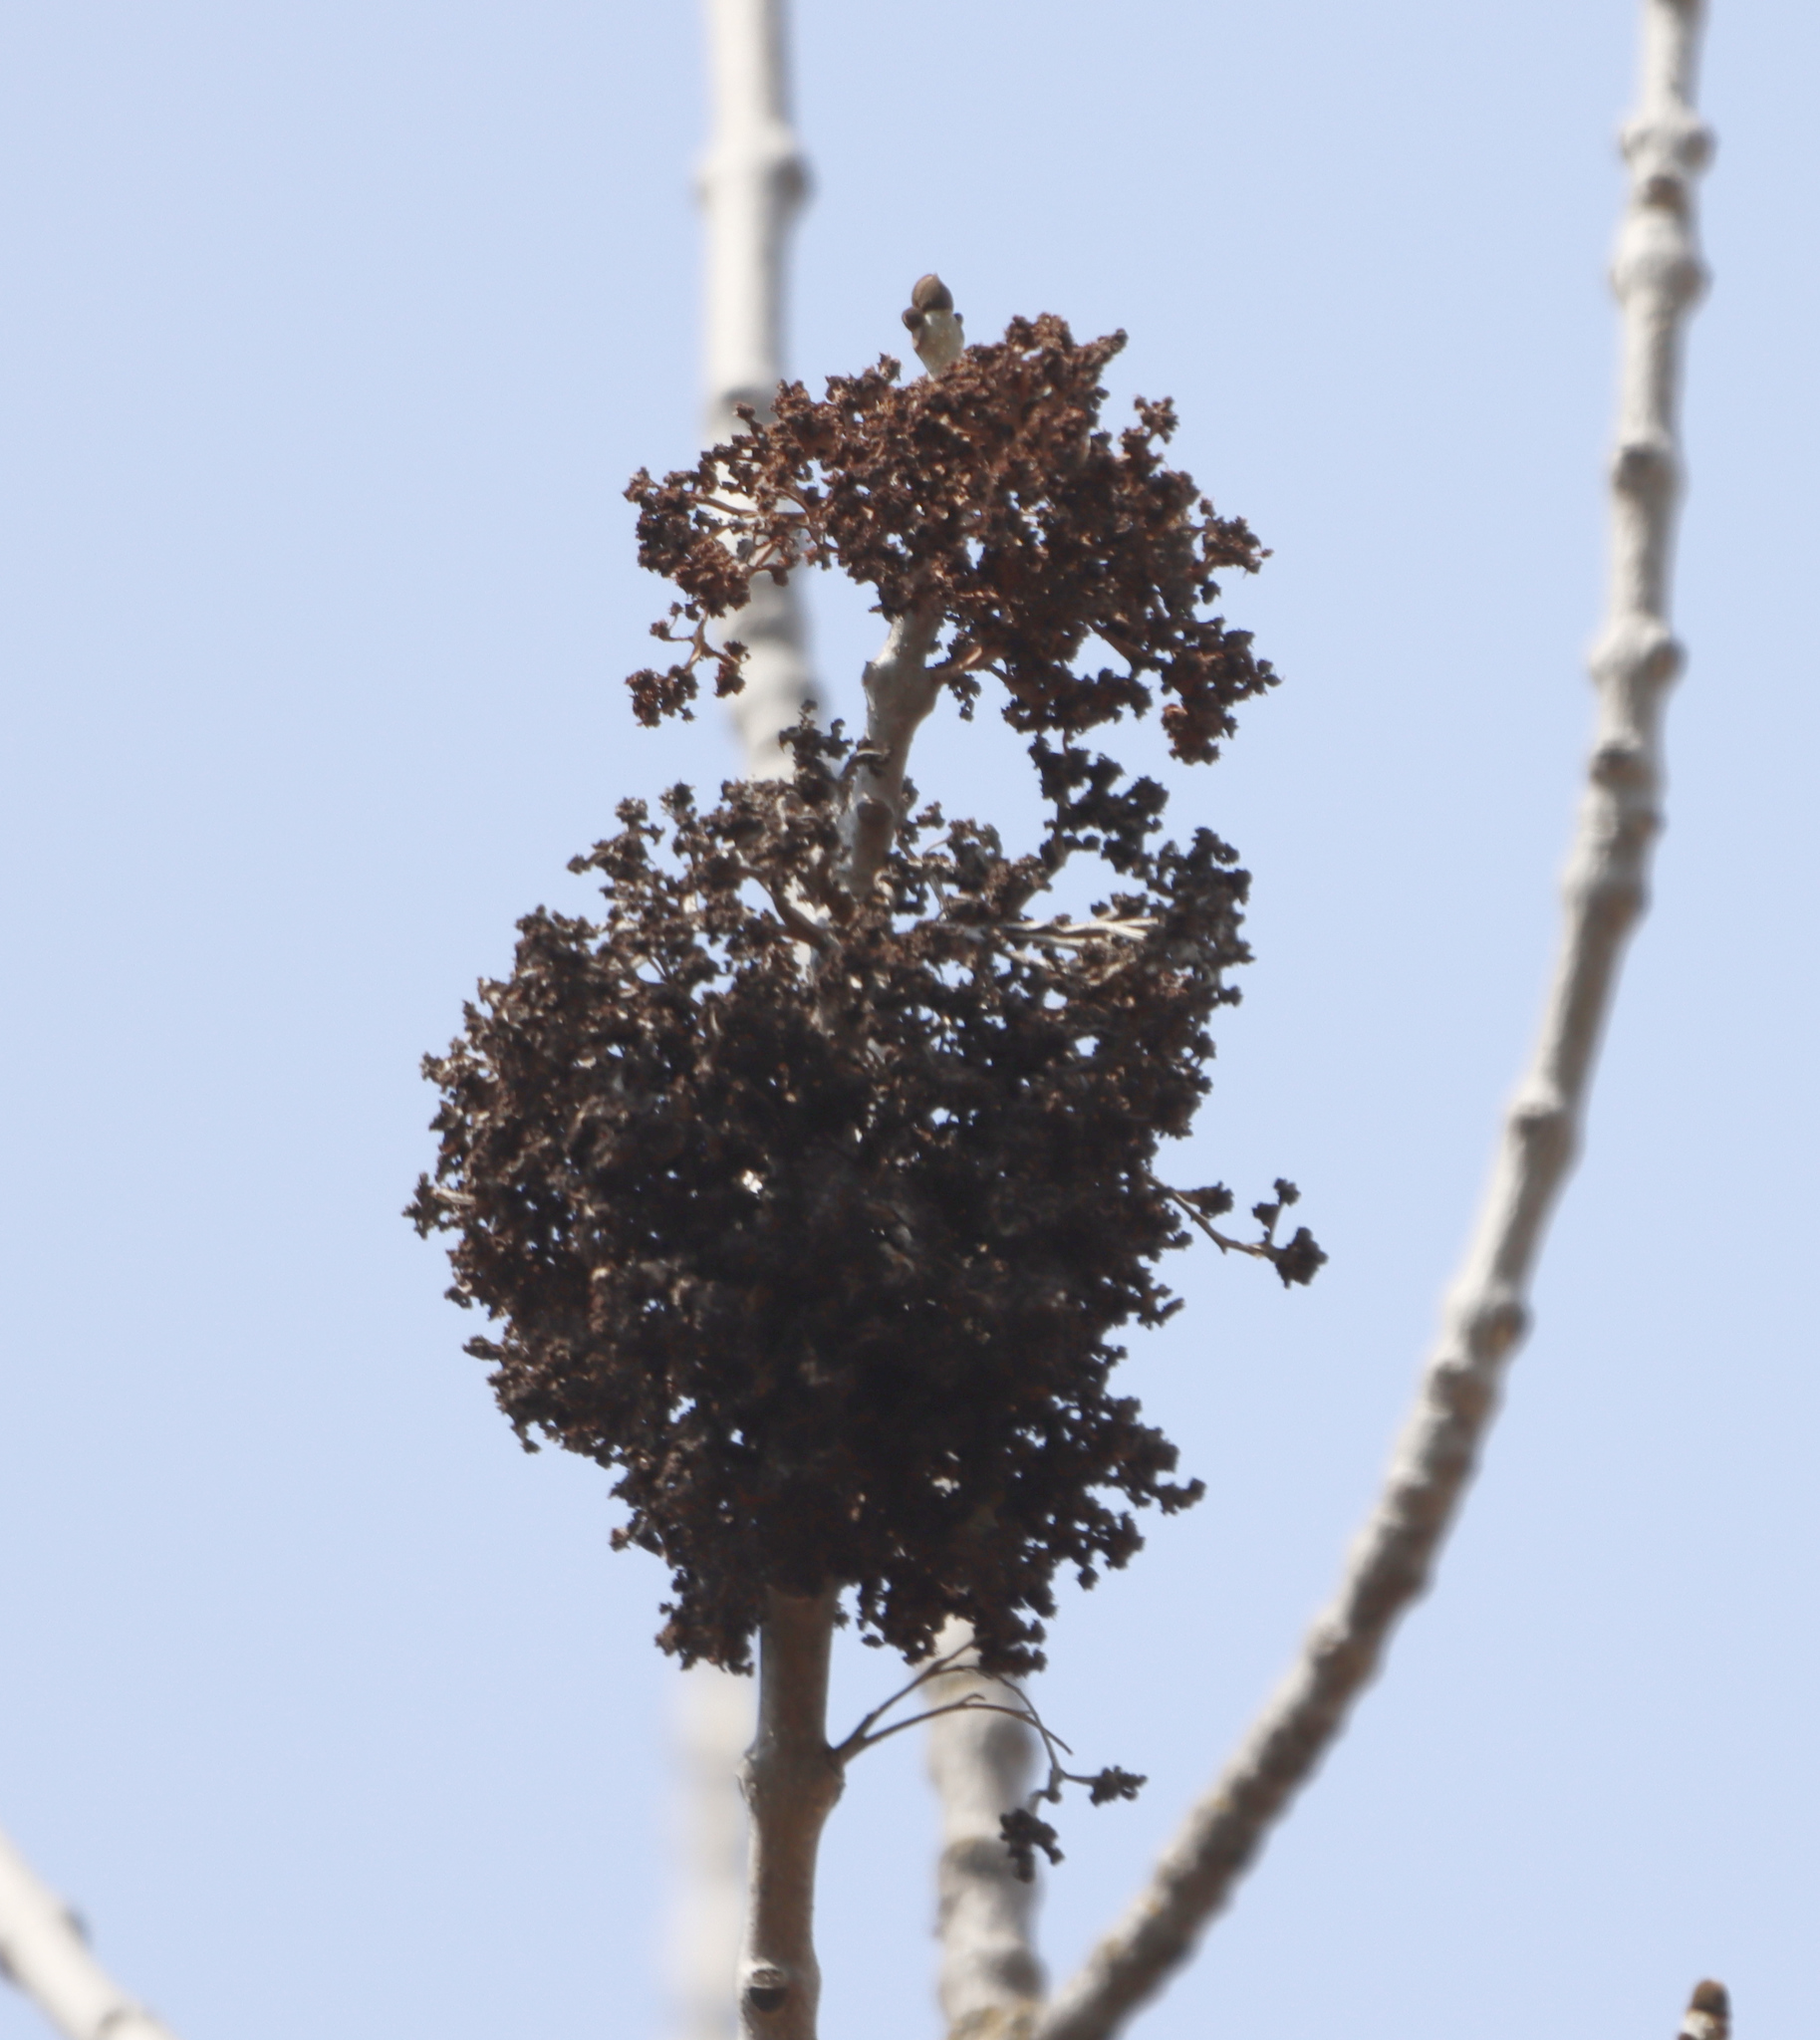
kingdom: Animalia
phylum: Arthropoda
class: Arachnida
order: Trombidiformes
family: Eriophyidae
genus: Aceria
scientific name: Aceria fraxiniflora
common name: Ash flower gall mite
